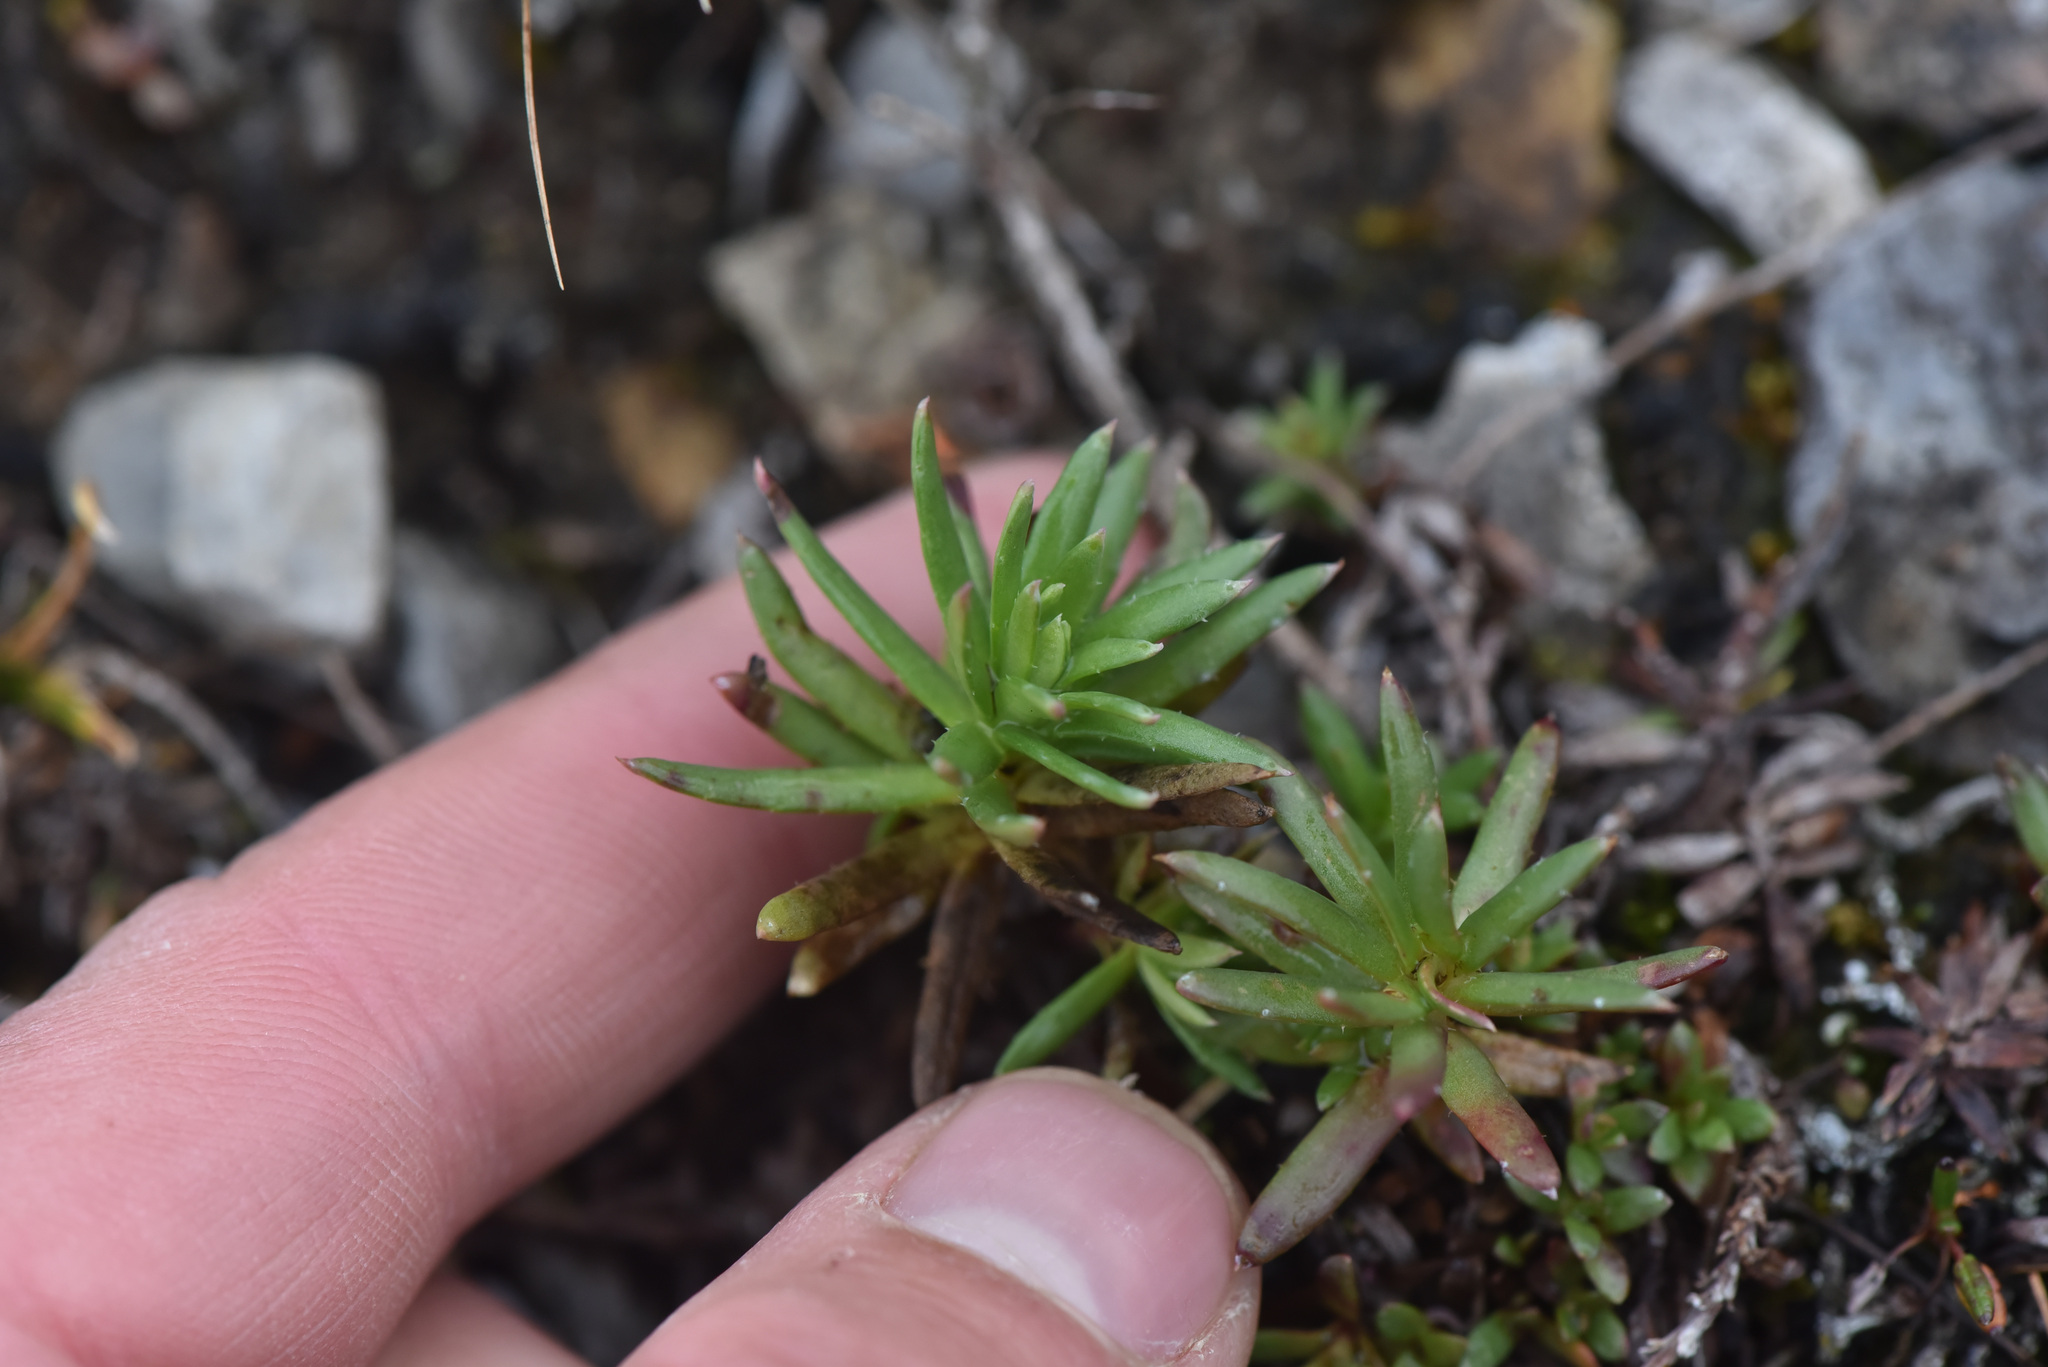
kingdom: Plantae
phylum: Tracheophyta
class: Magnoliopsida
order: Saxifragales
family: Saxifragaceae
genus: Saxifraga
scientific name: Saxifraga aizoides
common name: Yellow mountain saxifrage
